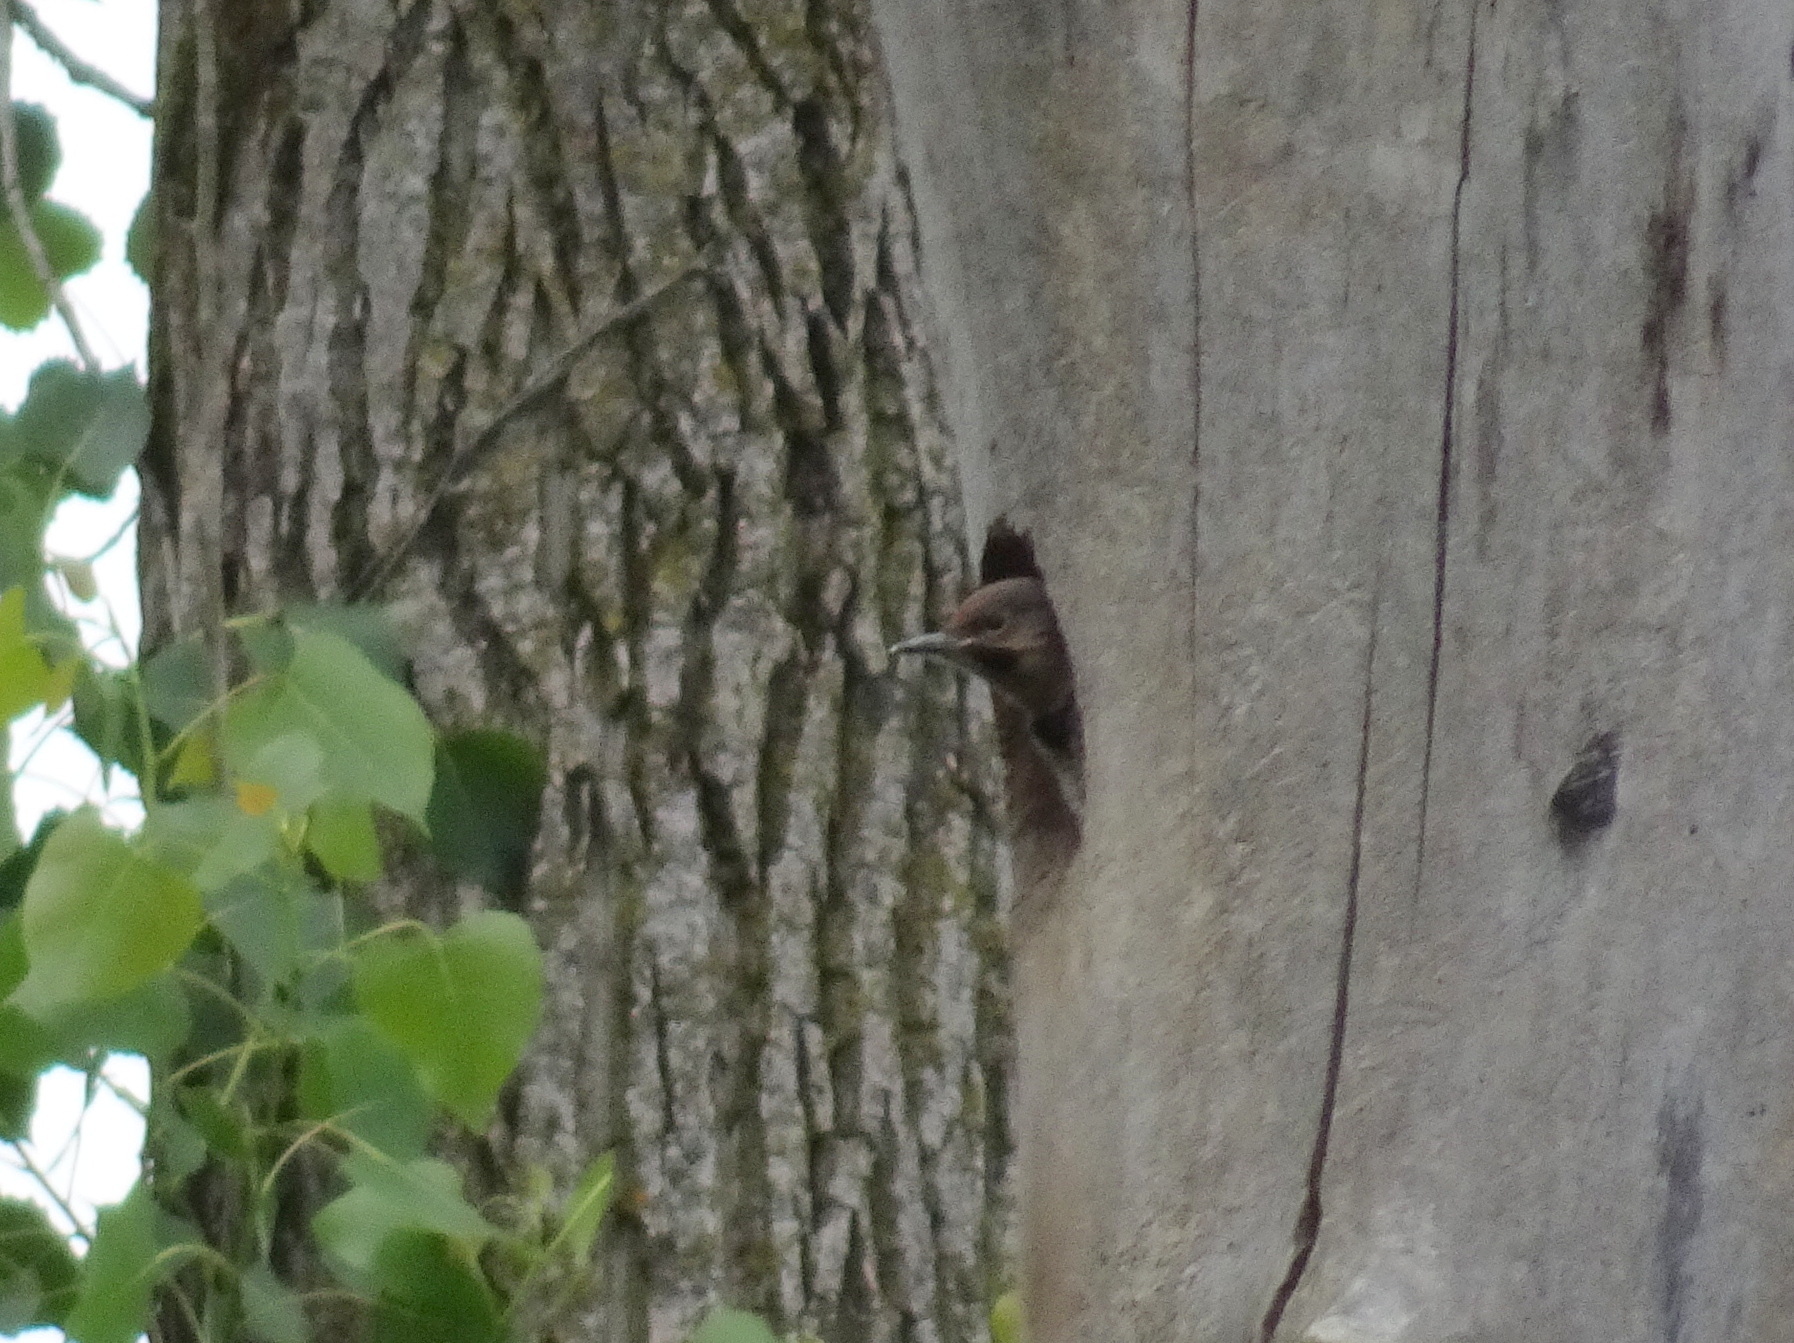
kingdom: Animalia
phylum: Chordata
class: Aves
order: Piciformes
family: Picidae
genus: Colaptes
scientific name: Colaptes auratus
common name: Northern flicker
